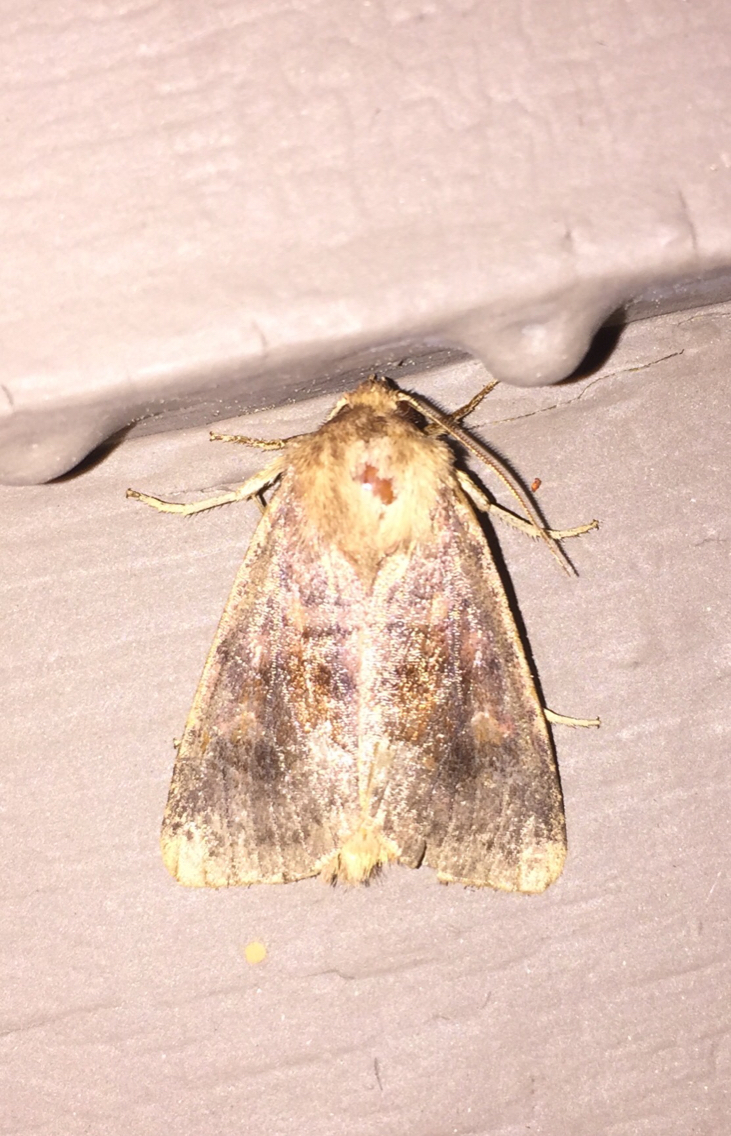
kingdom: Animalia
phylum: Arthropoda
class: Insecta
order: Lepidoptera
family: Noctuidae
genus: Nephelodes
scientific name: Nephelodes minians
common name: Bronzed cutworm
